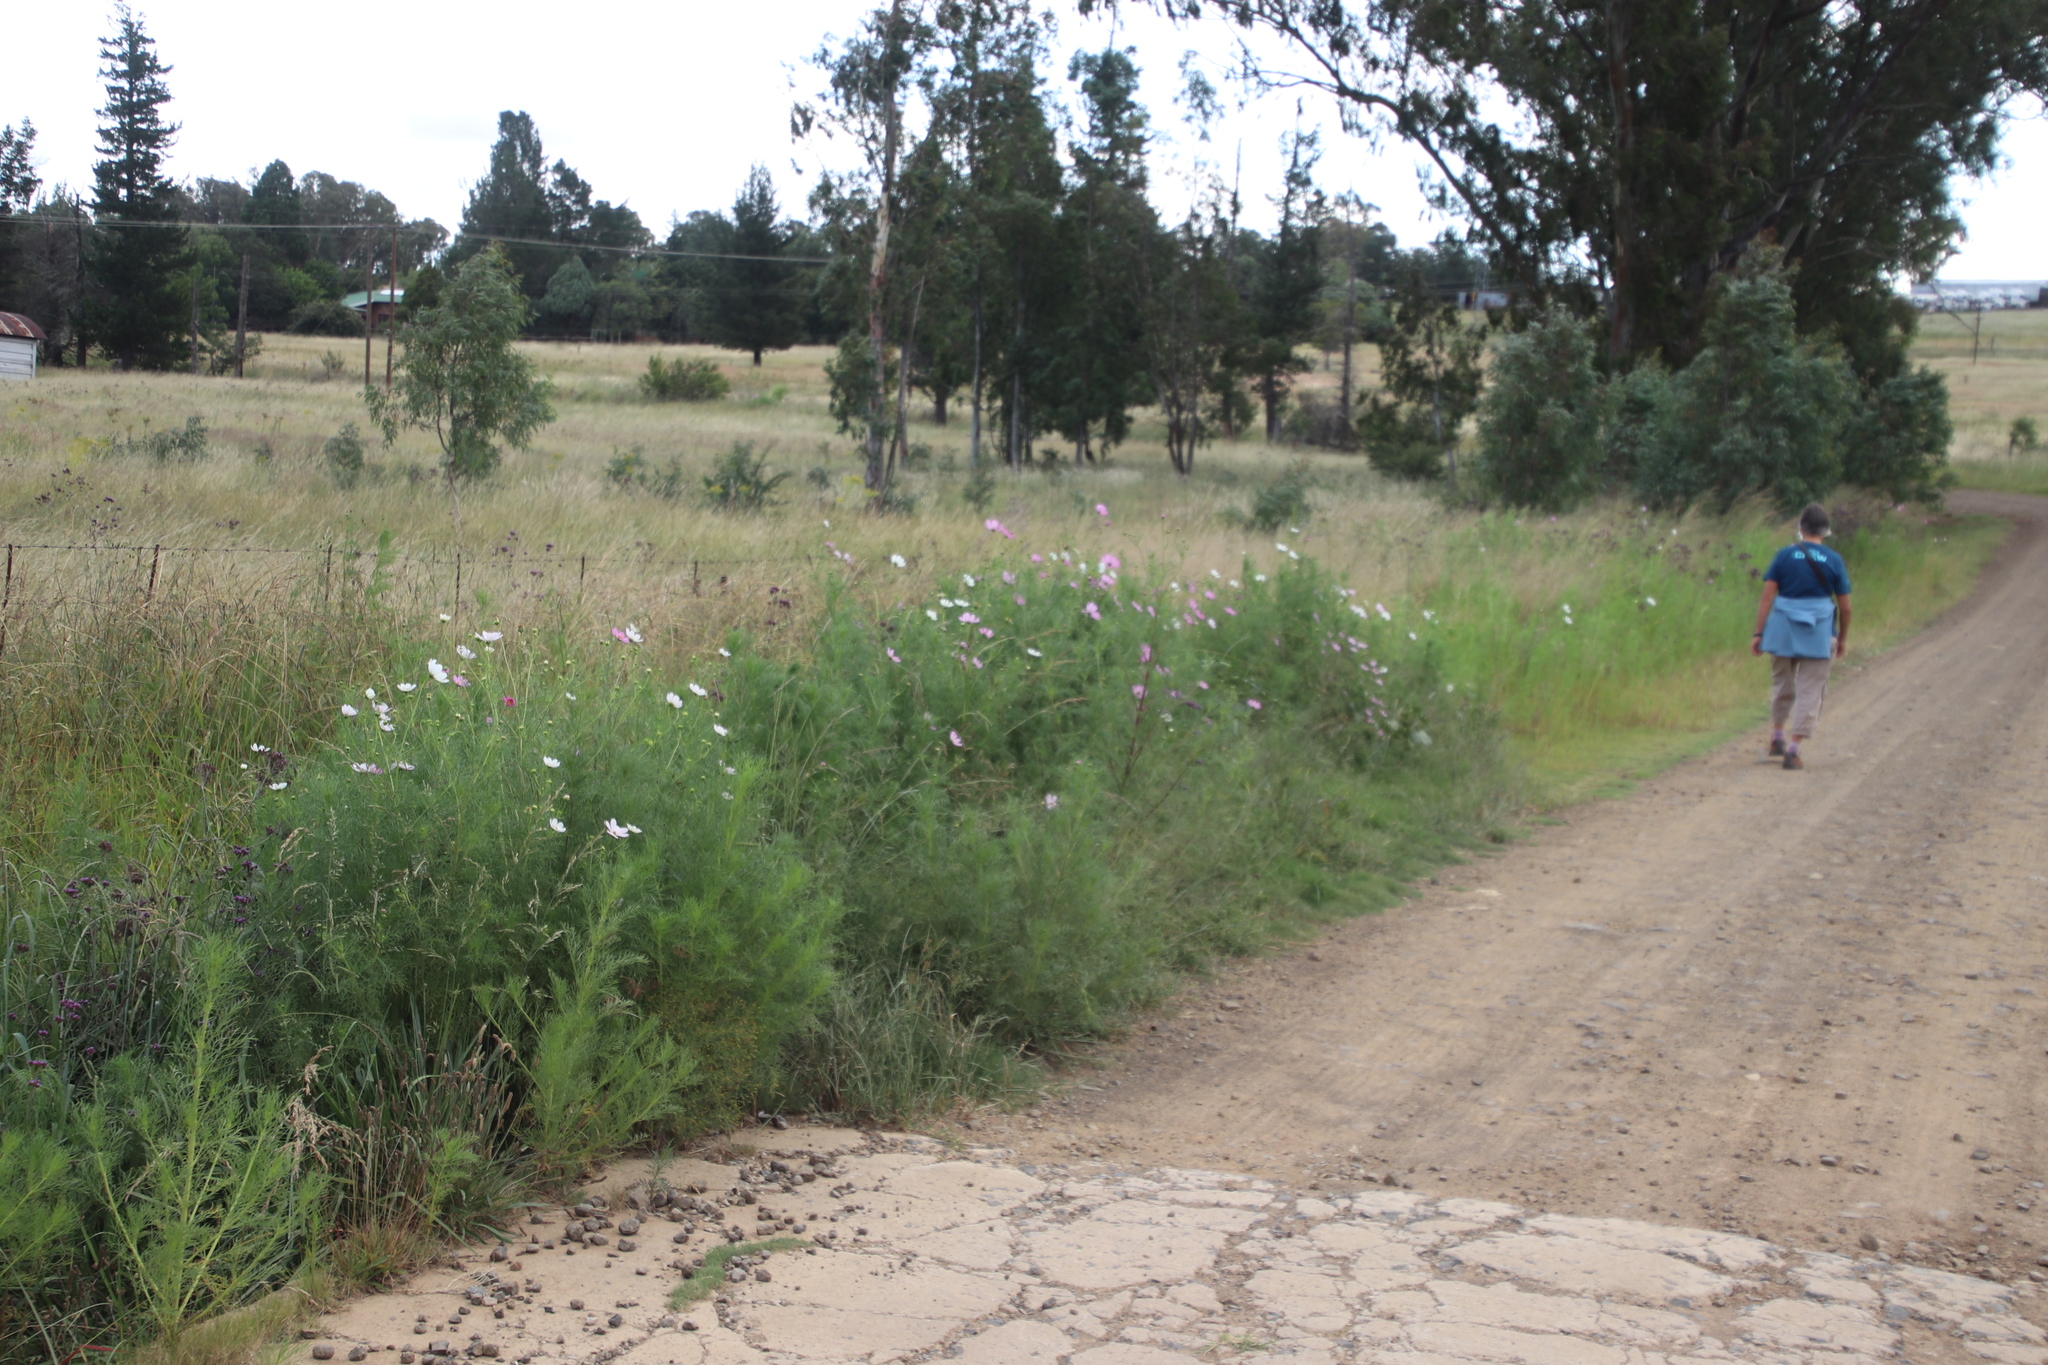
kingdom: Plantae
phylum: Tracheophyta
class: Magnoliopsida
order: Asterales
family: Asteraceae
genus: Cosmos
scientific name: Cosmos bipinnatus
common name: Garden cosmos
